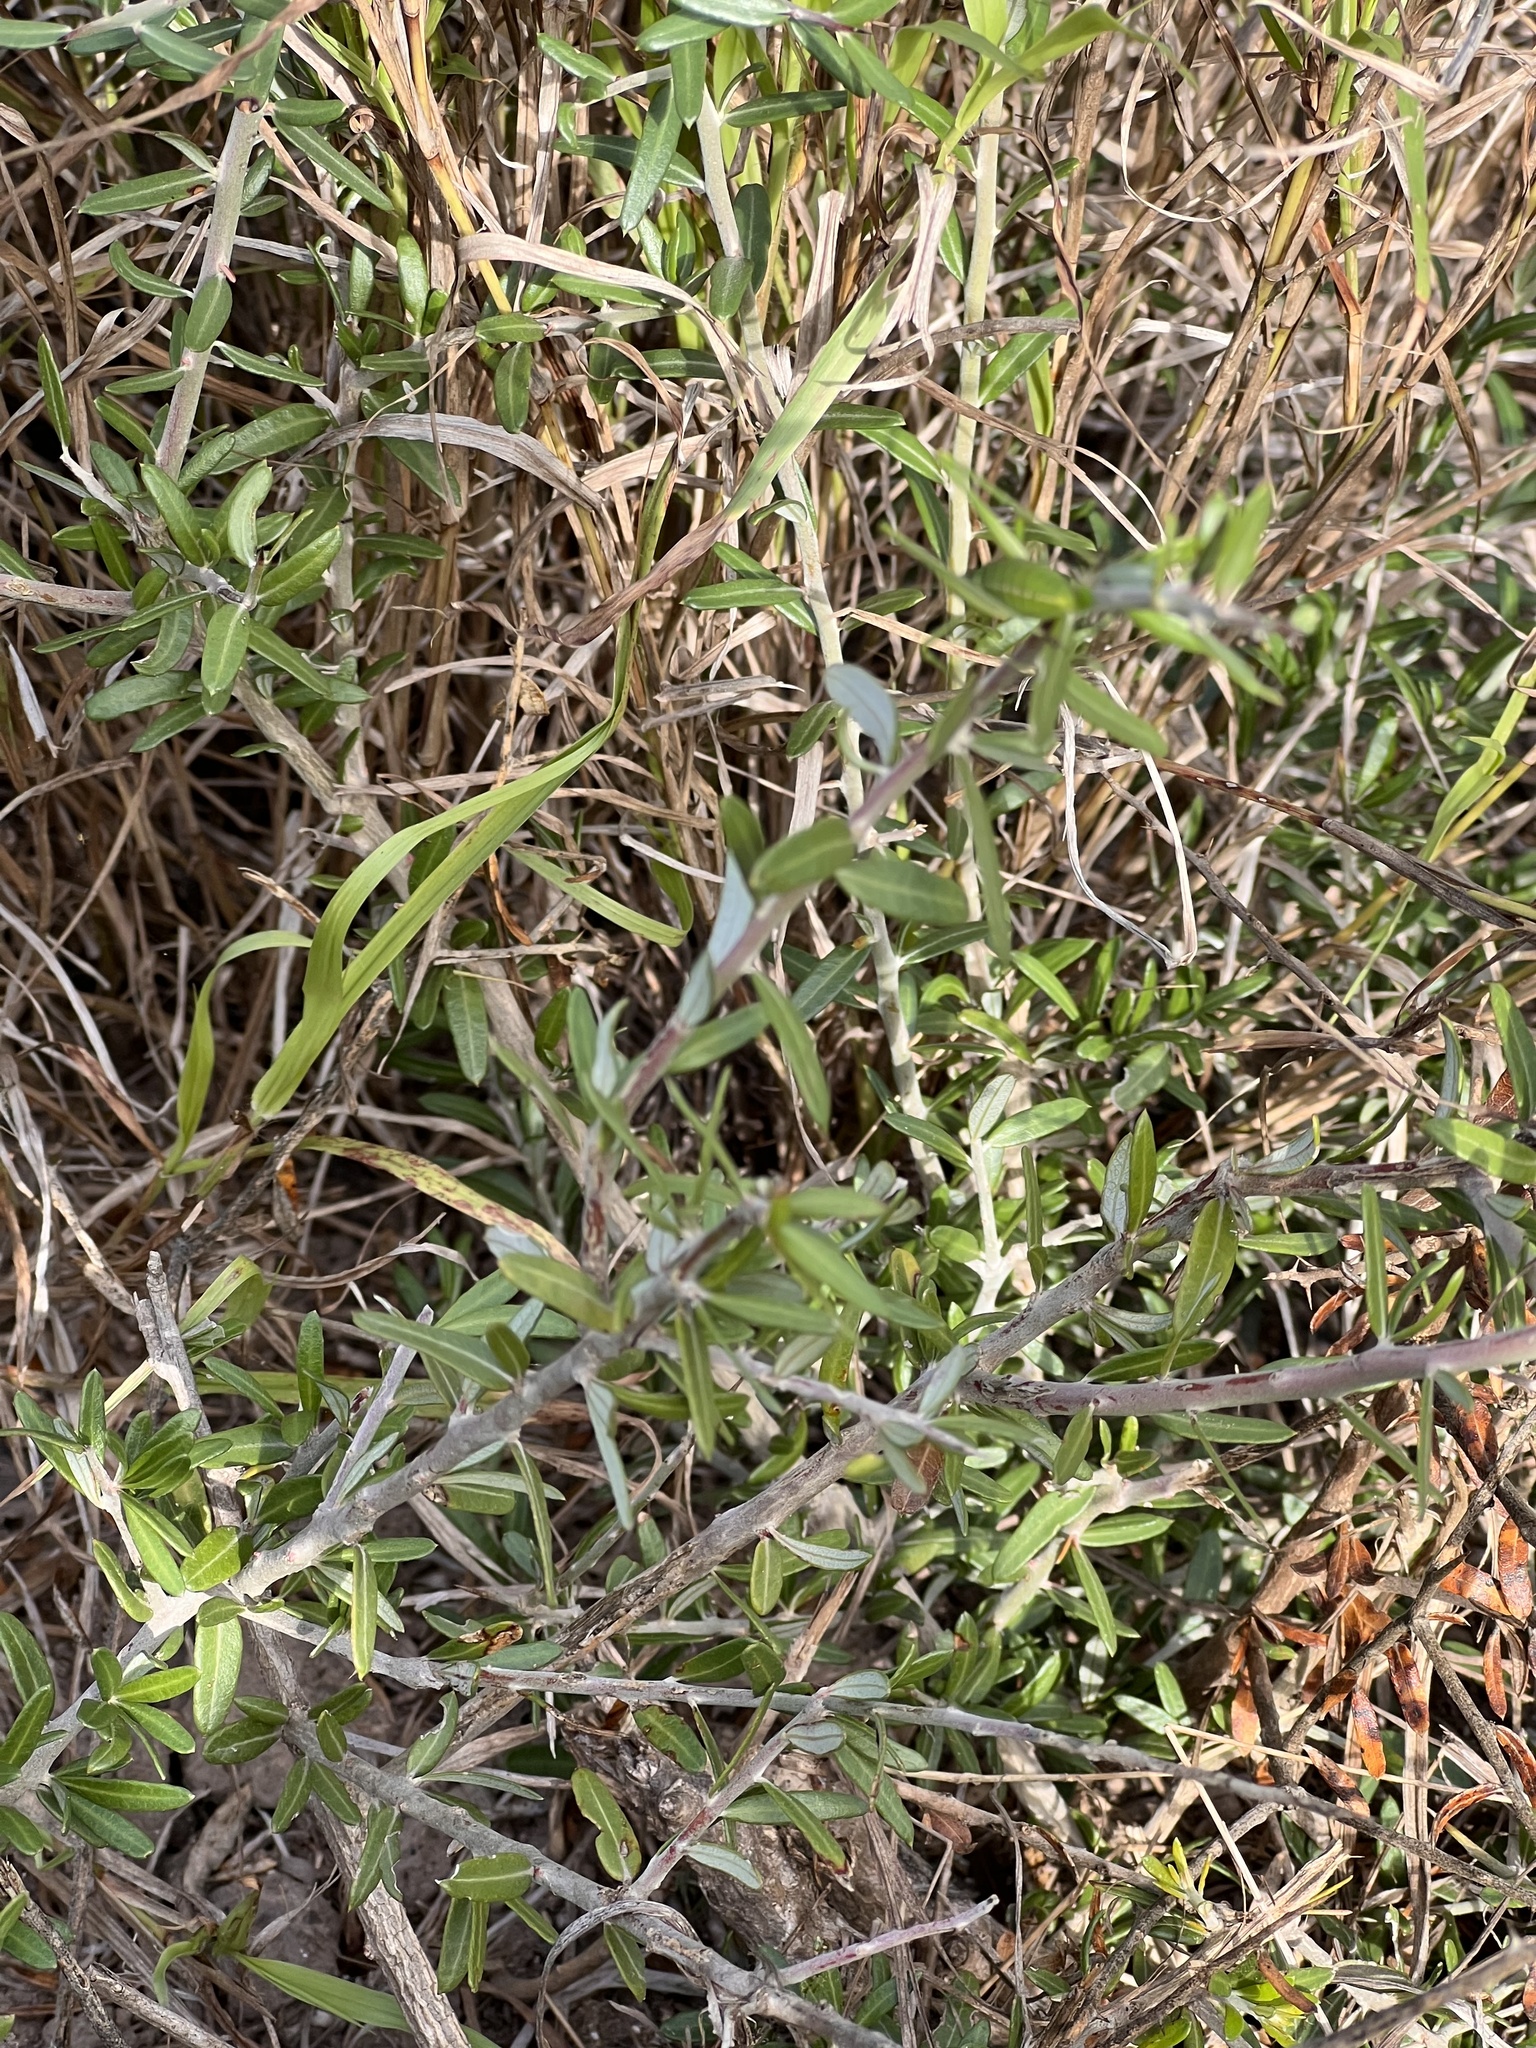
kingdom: Plantae
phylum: Tracheophyta
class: Magnoliopsida
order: Sapindales
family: Simaroubaceae
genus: Castela
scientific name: Castela erecta
